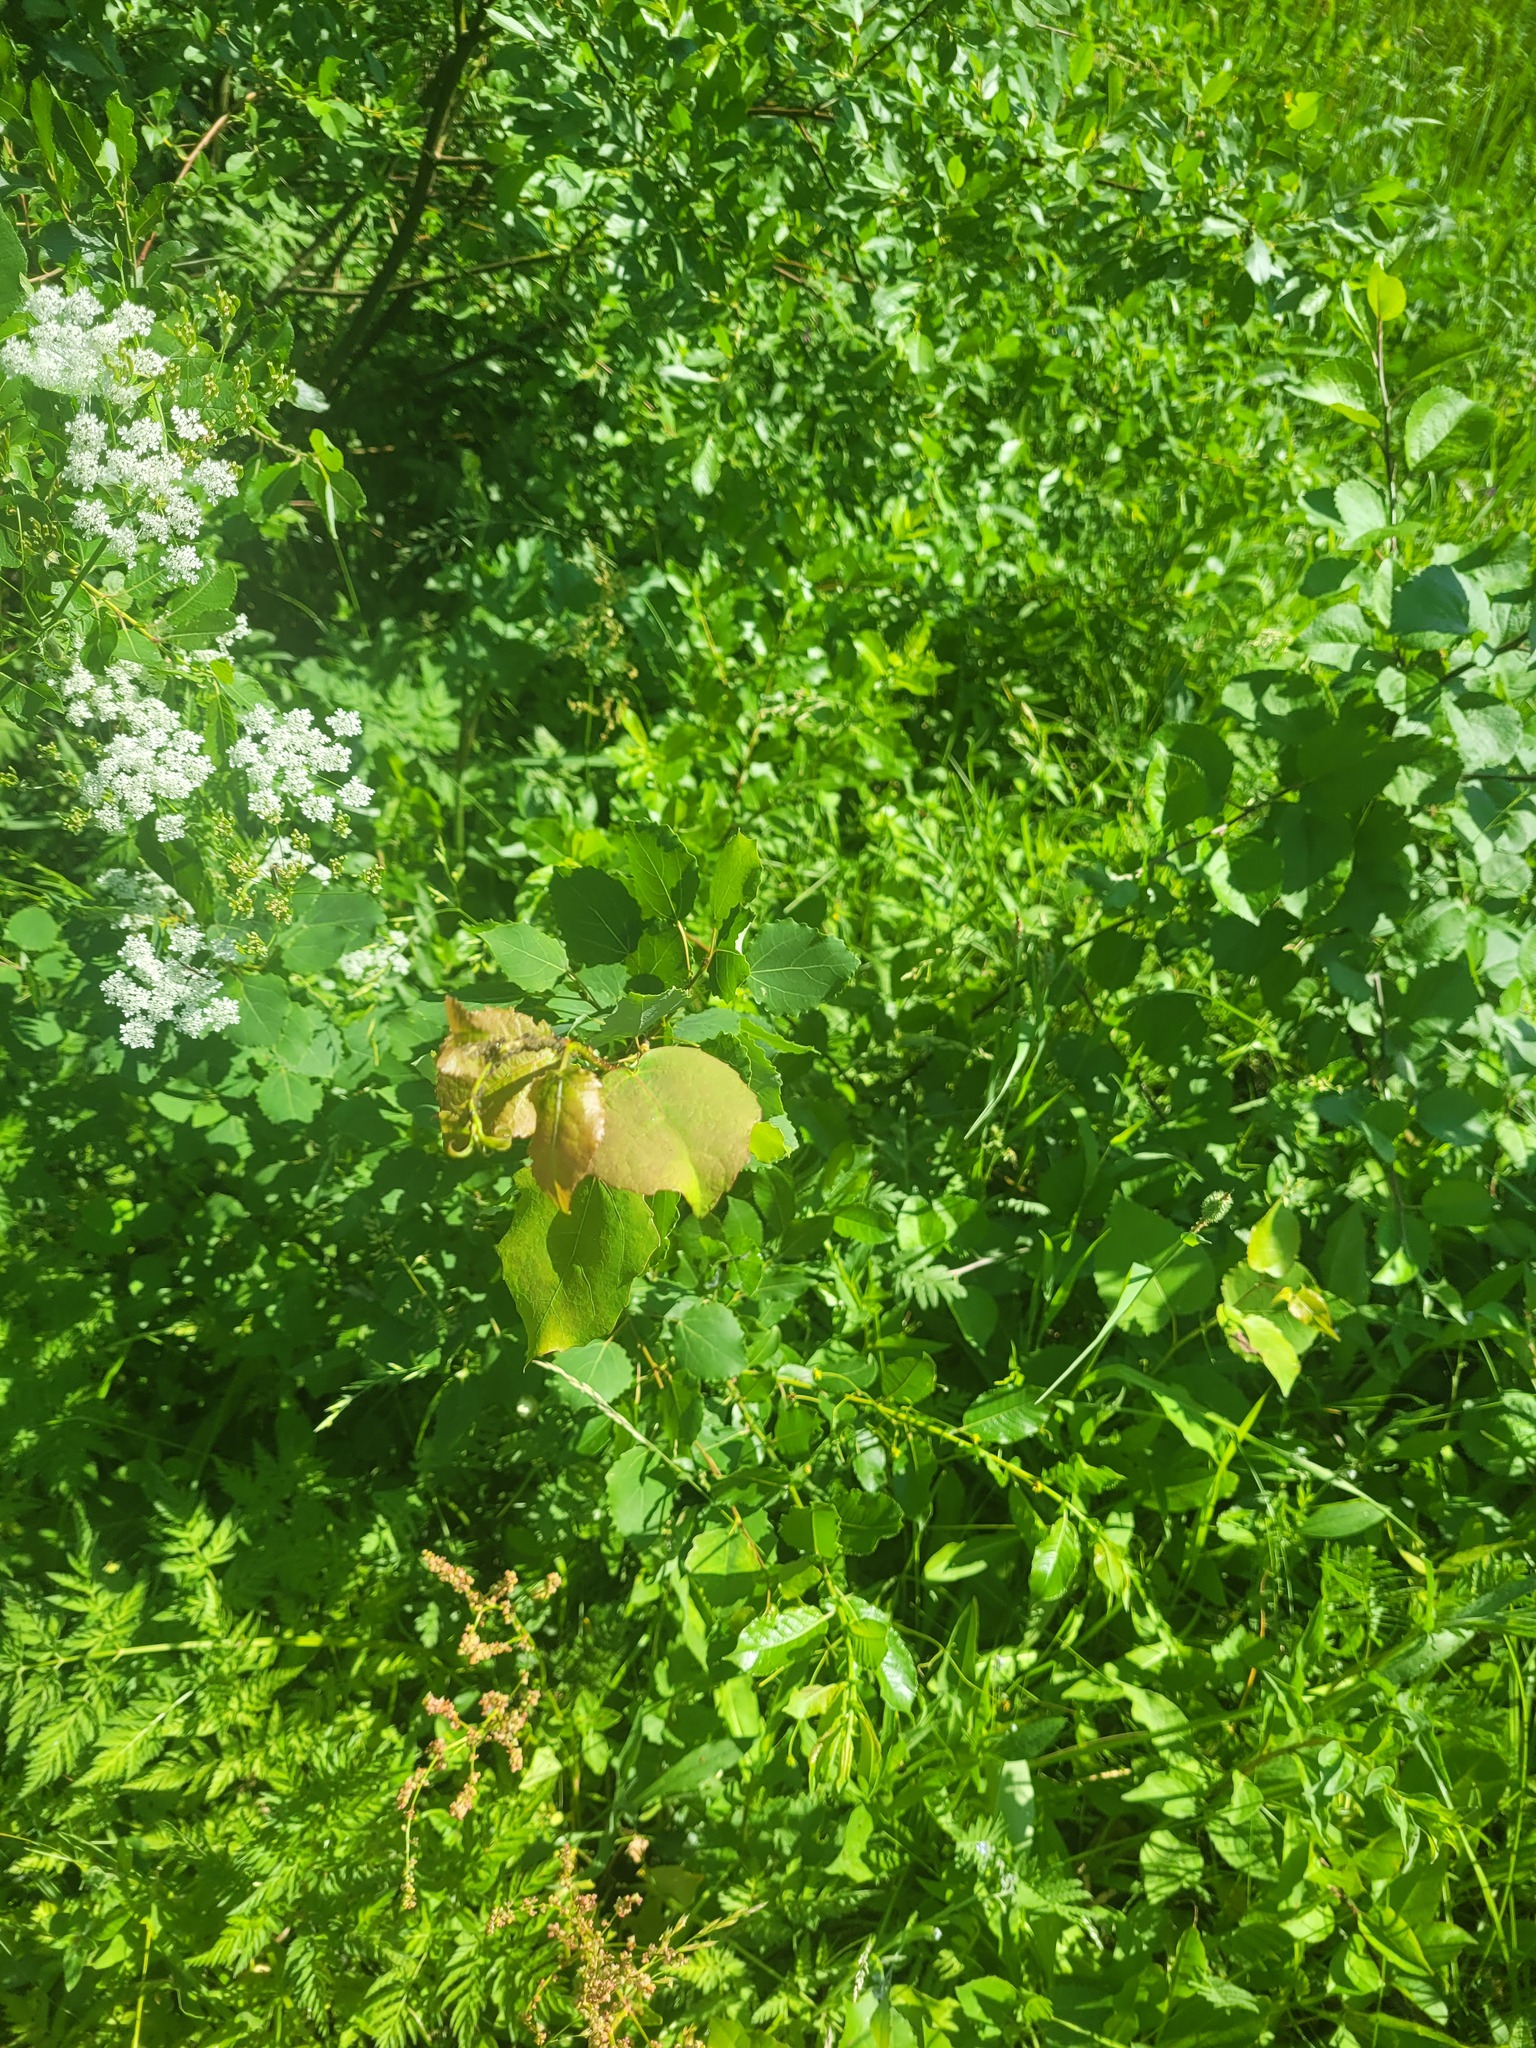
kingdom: Plantae
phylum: Tracheophyta
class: Magnoliopsida
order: Malpighiales
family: Salicaceae
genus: Populus
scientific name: Populus tremula
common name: European aspen
